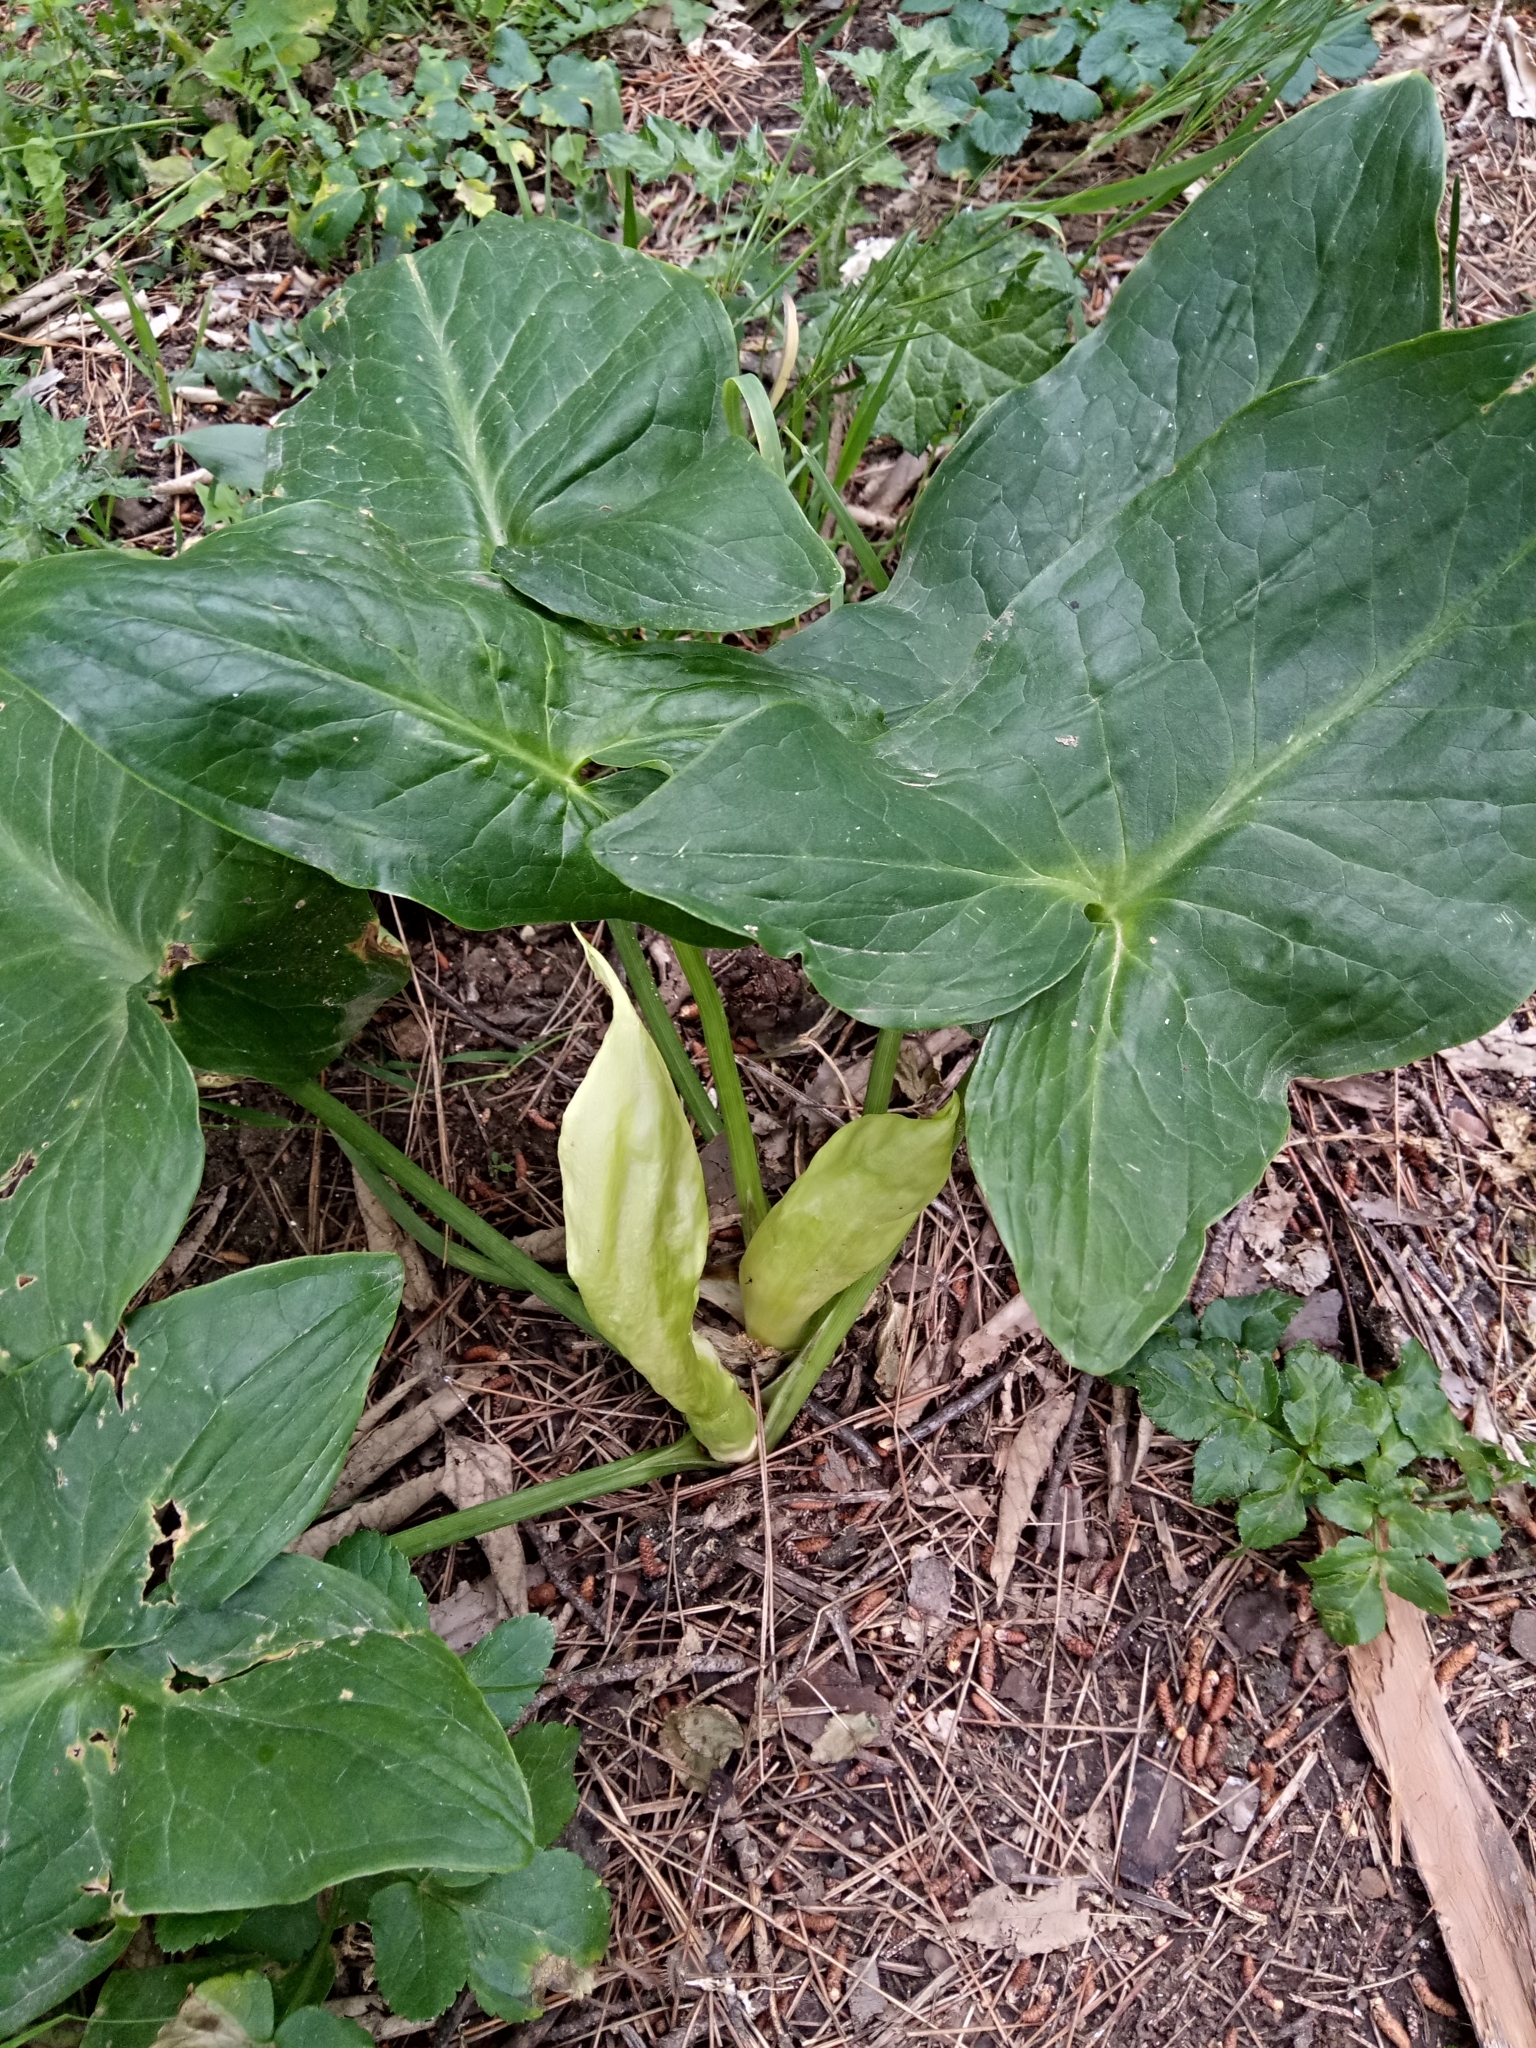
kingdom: Plantae
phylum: Tracheophyta
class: Liliopsida
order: Alismatales
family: Araceae
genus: Arum
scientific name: Arum italicum
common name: Italian lords-and-ladies
